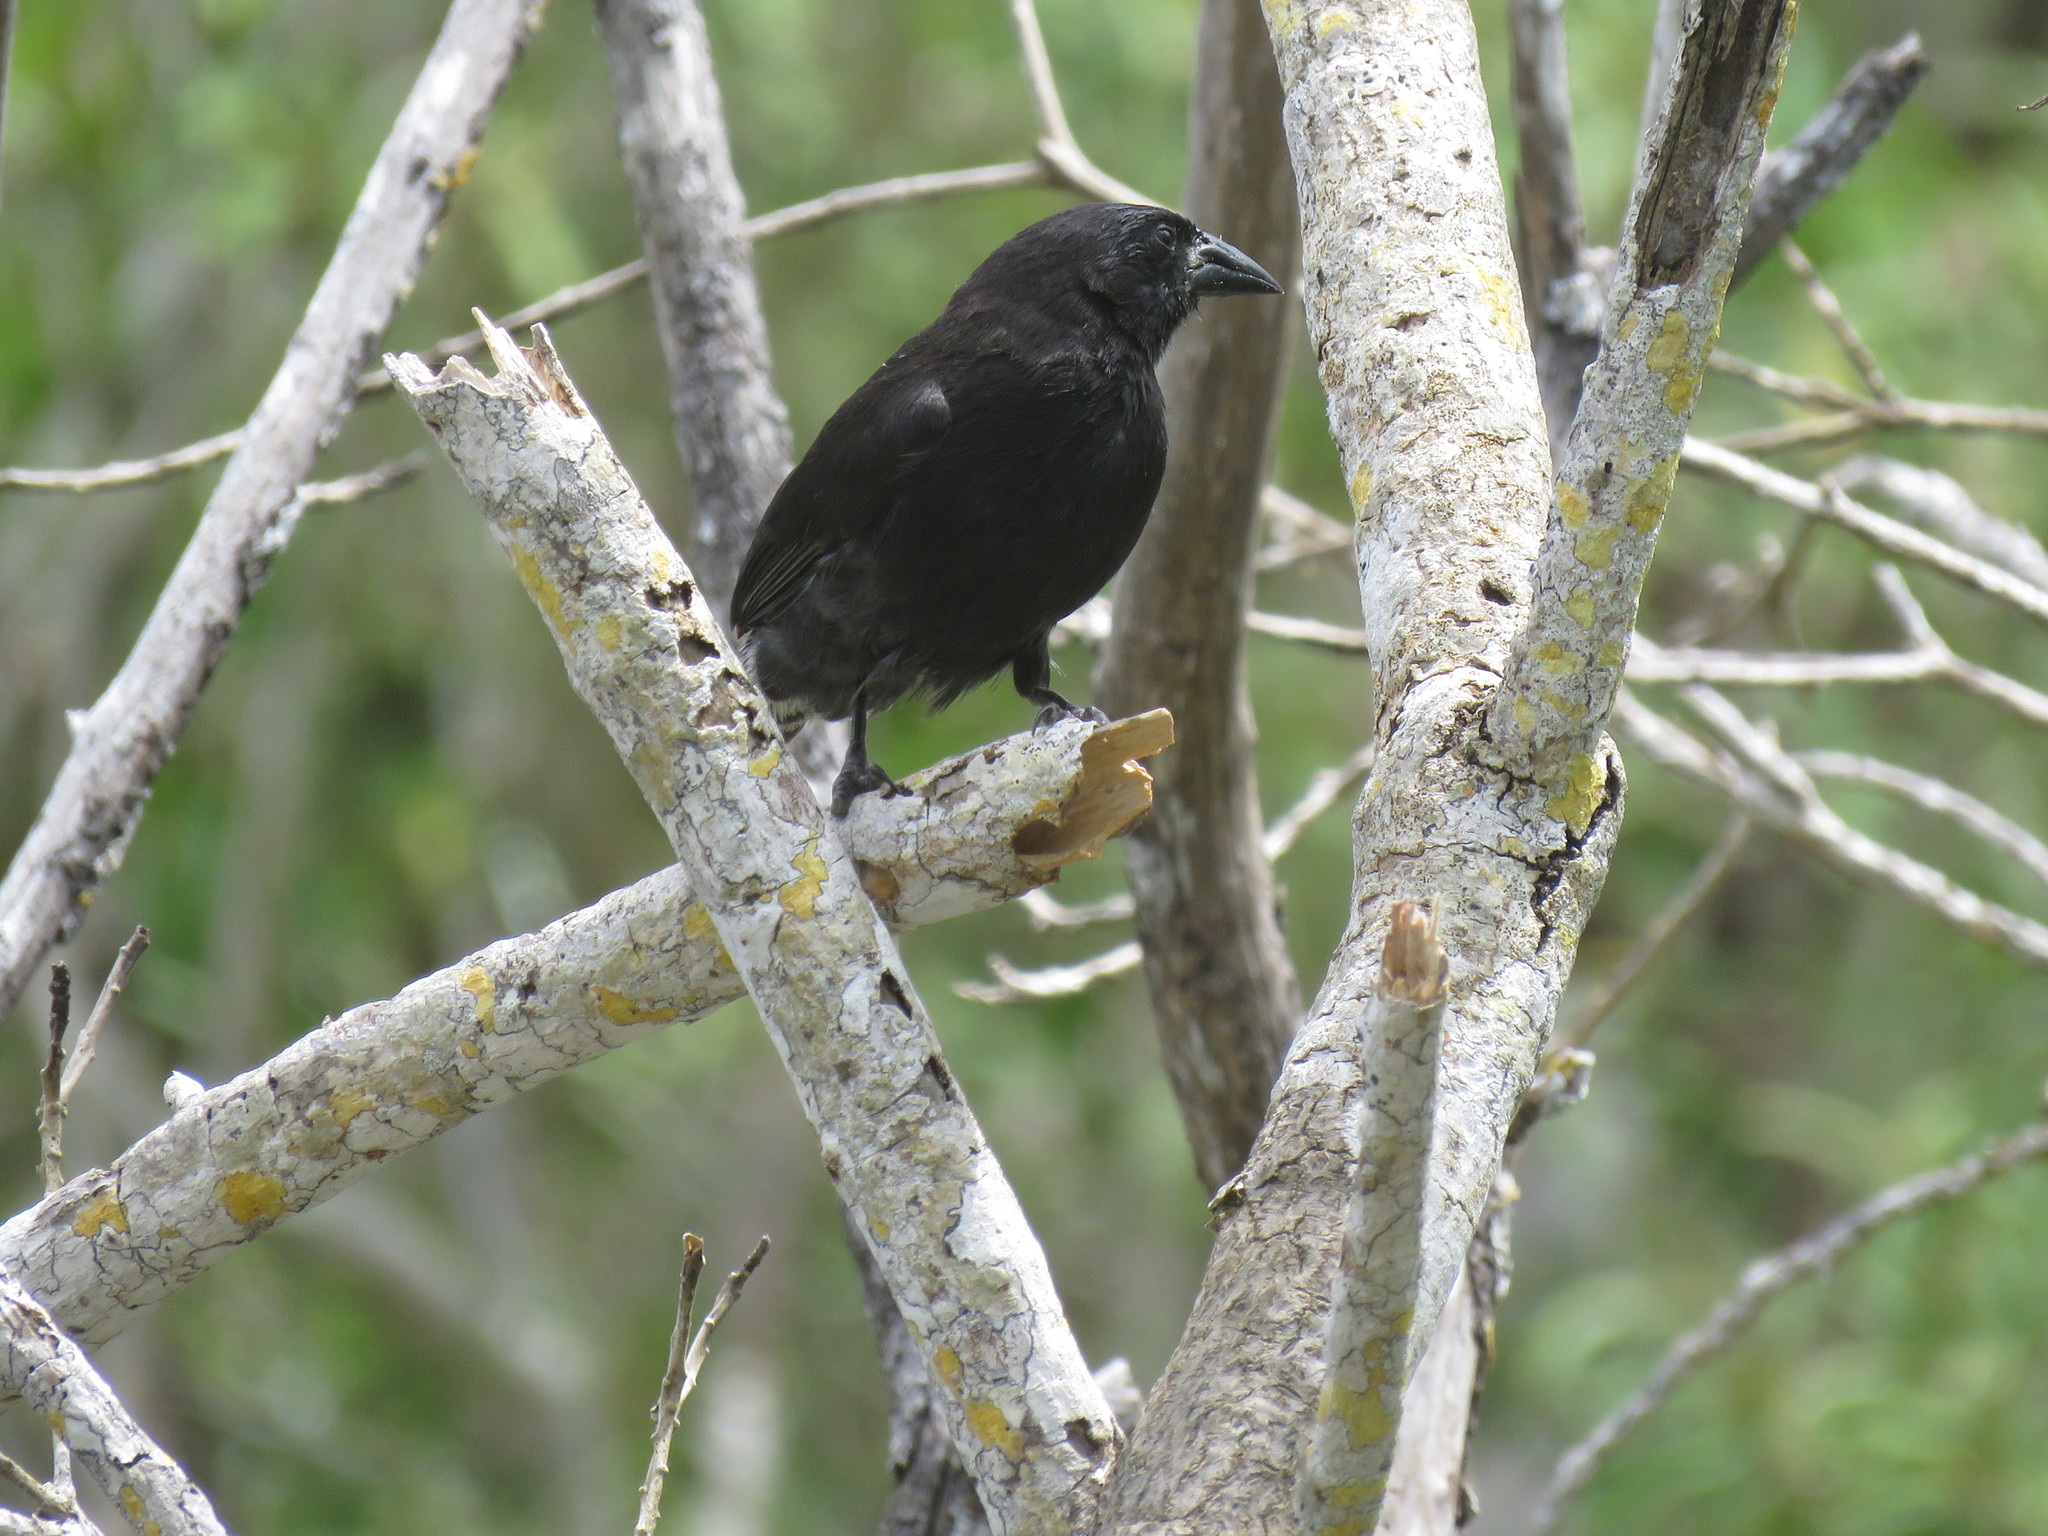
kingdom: Animalia
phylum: Chordata
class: Aves
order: Passeriformes
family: Thraupidae
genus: Geospiza
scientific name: Geospiza scandens
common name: Common cactus-finch
